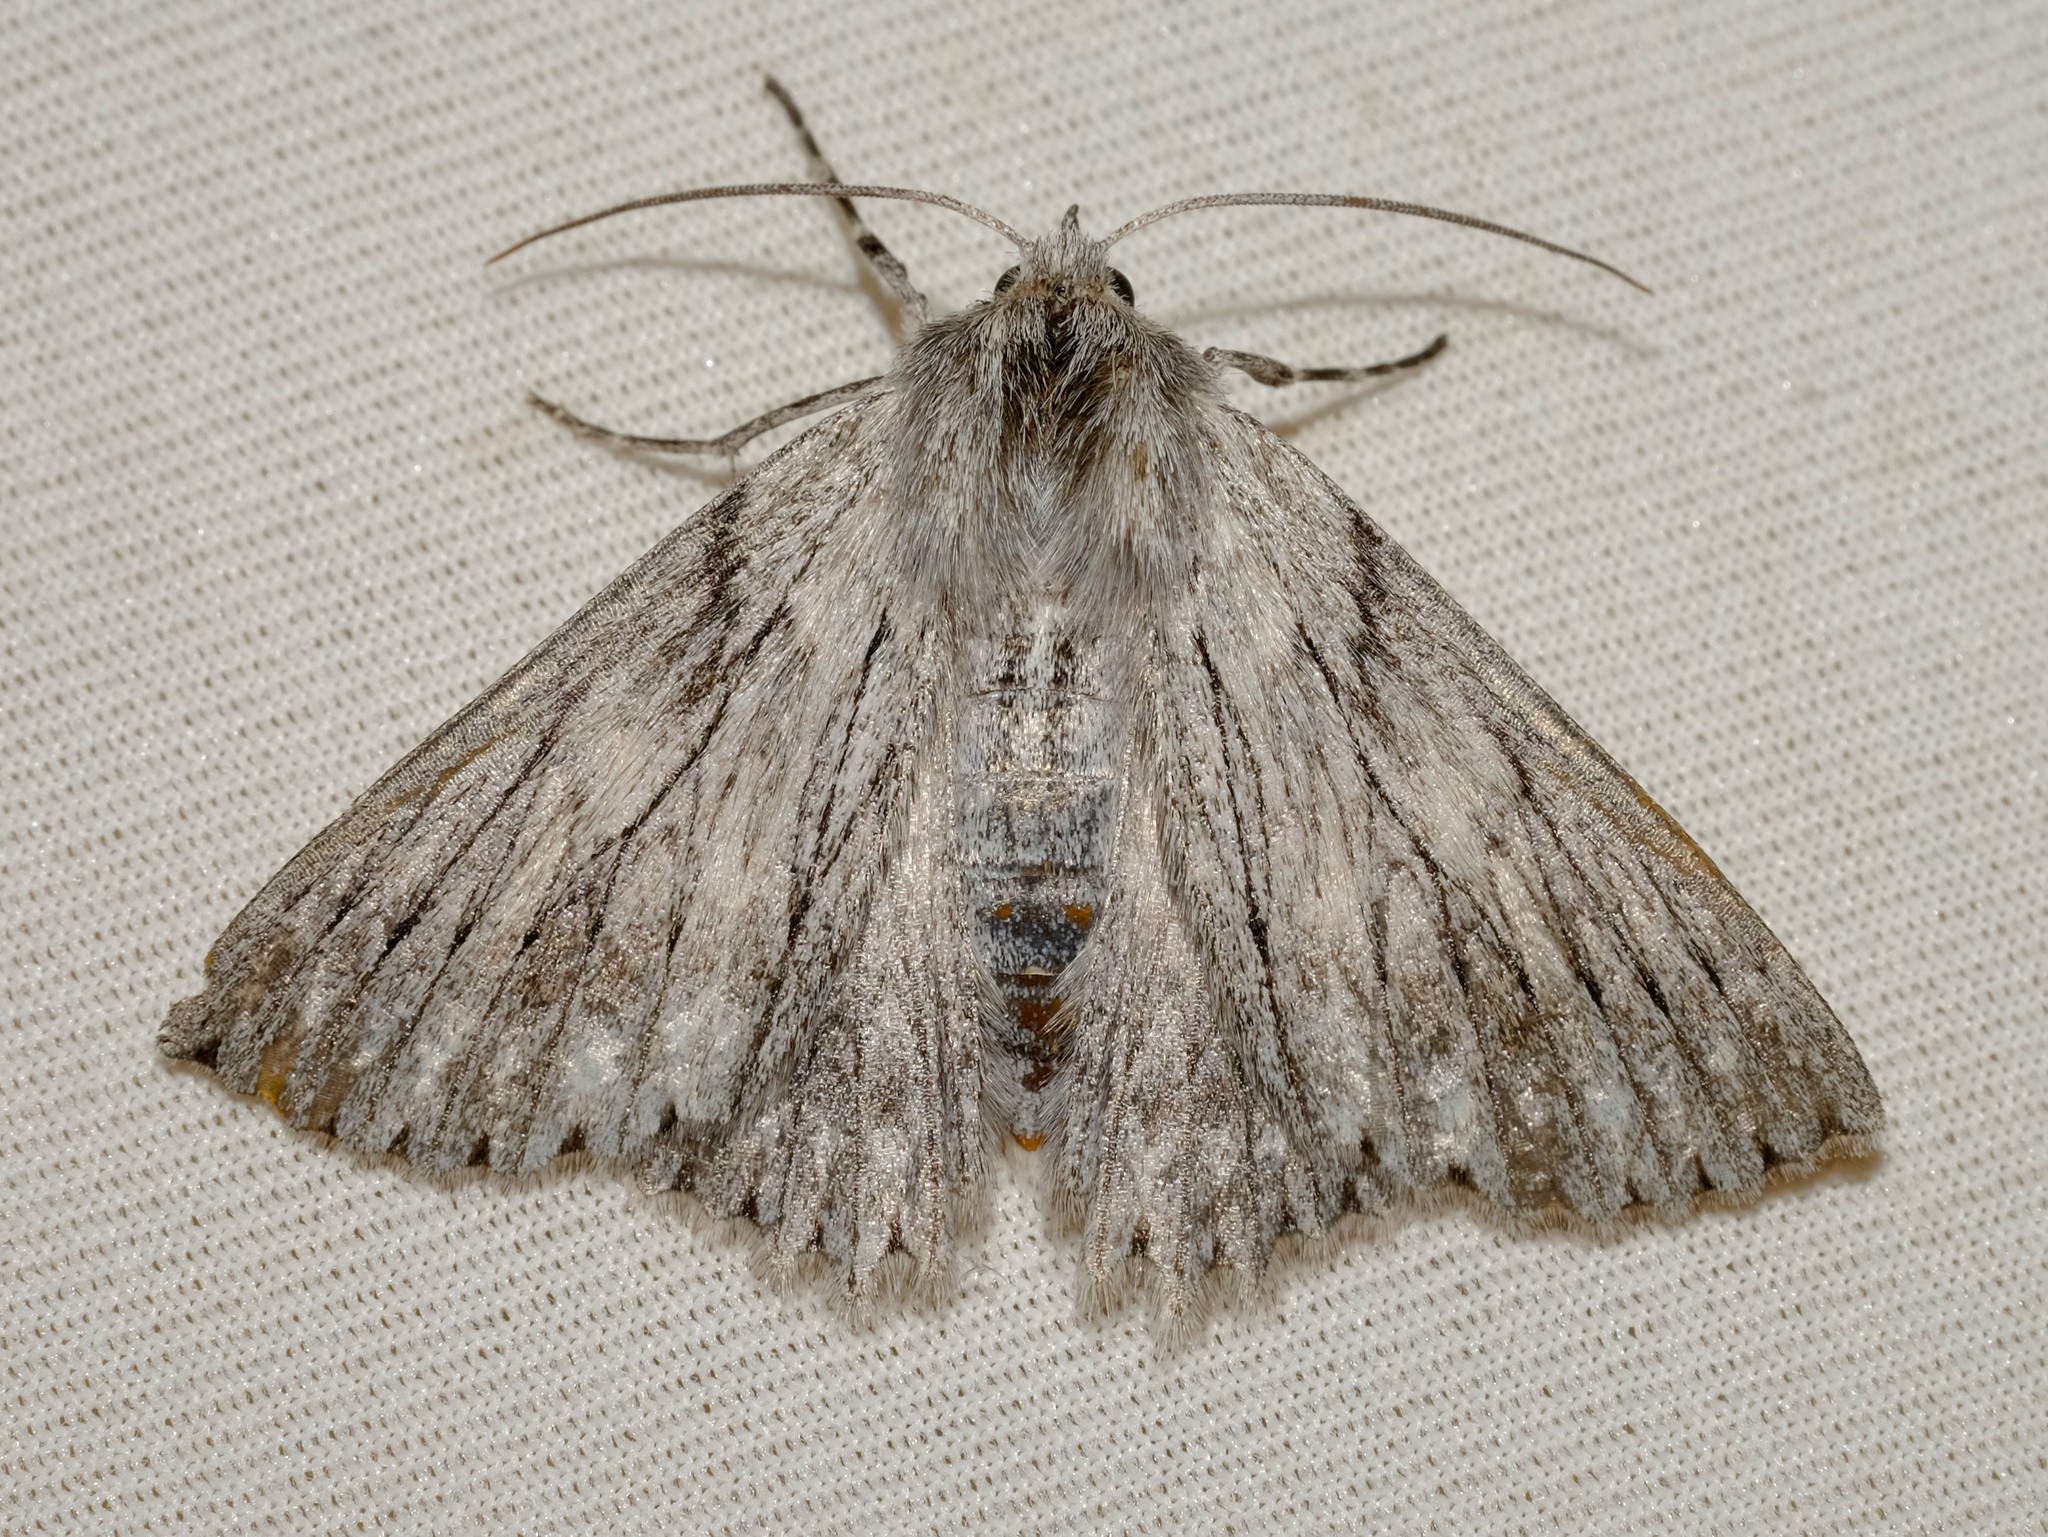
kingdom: Animalia
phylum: Arthropoda
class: Insecta
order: Lepidoptera
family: Geometridae
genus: Cyneoterpna
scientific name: Cyneoterpna wilsoni
